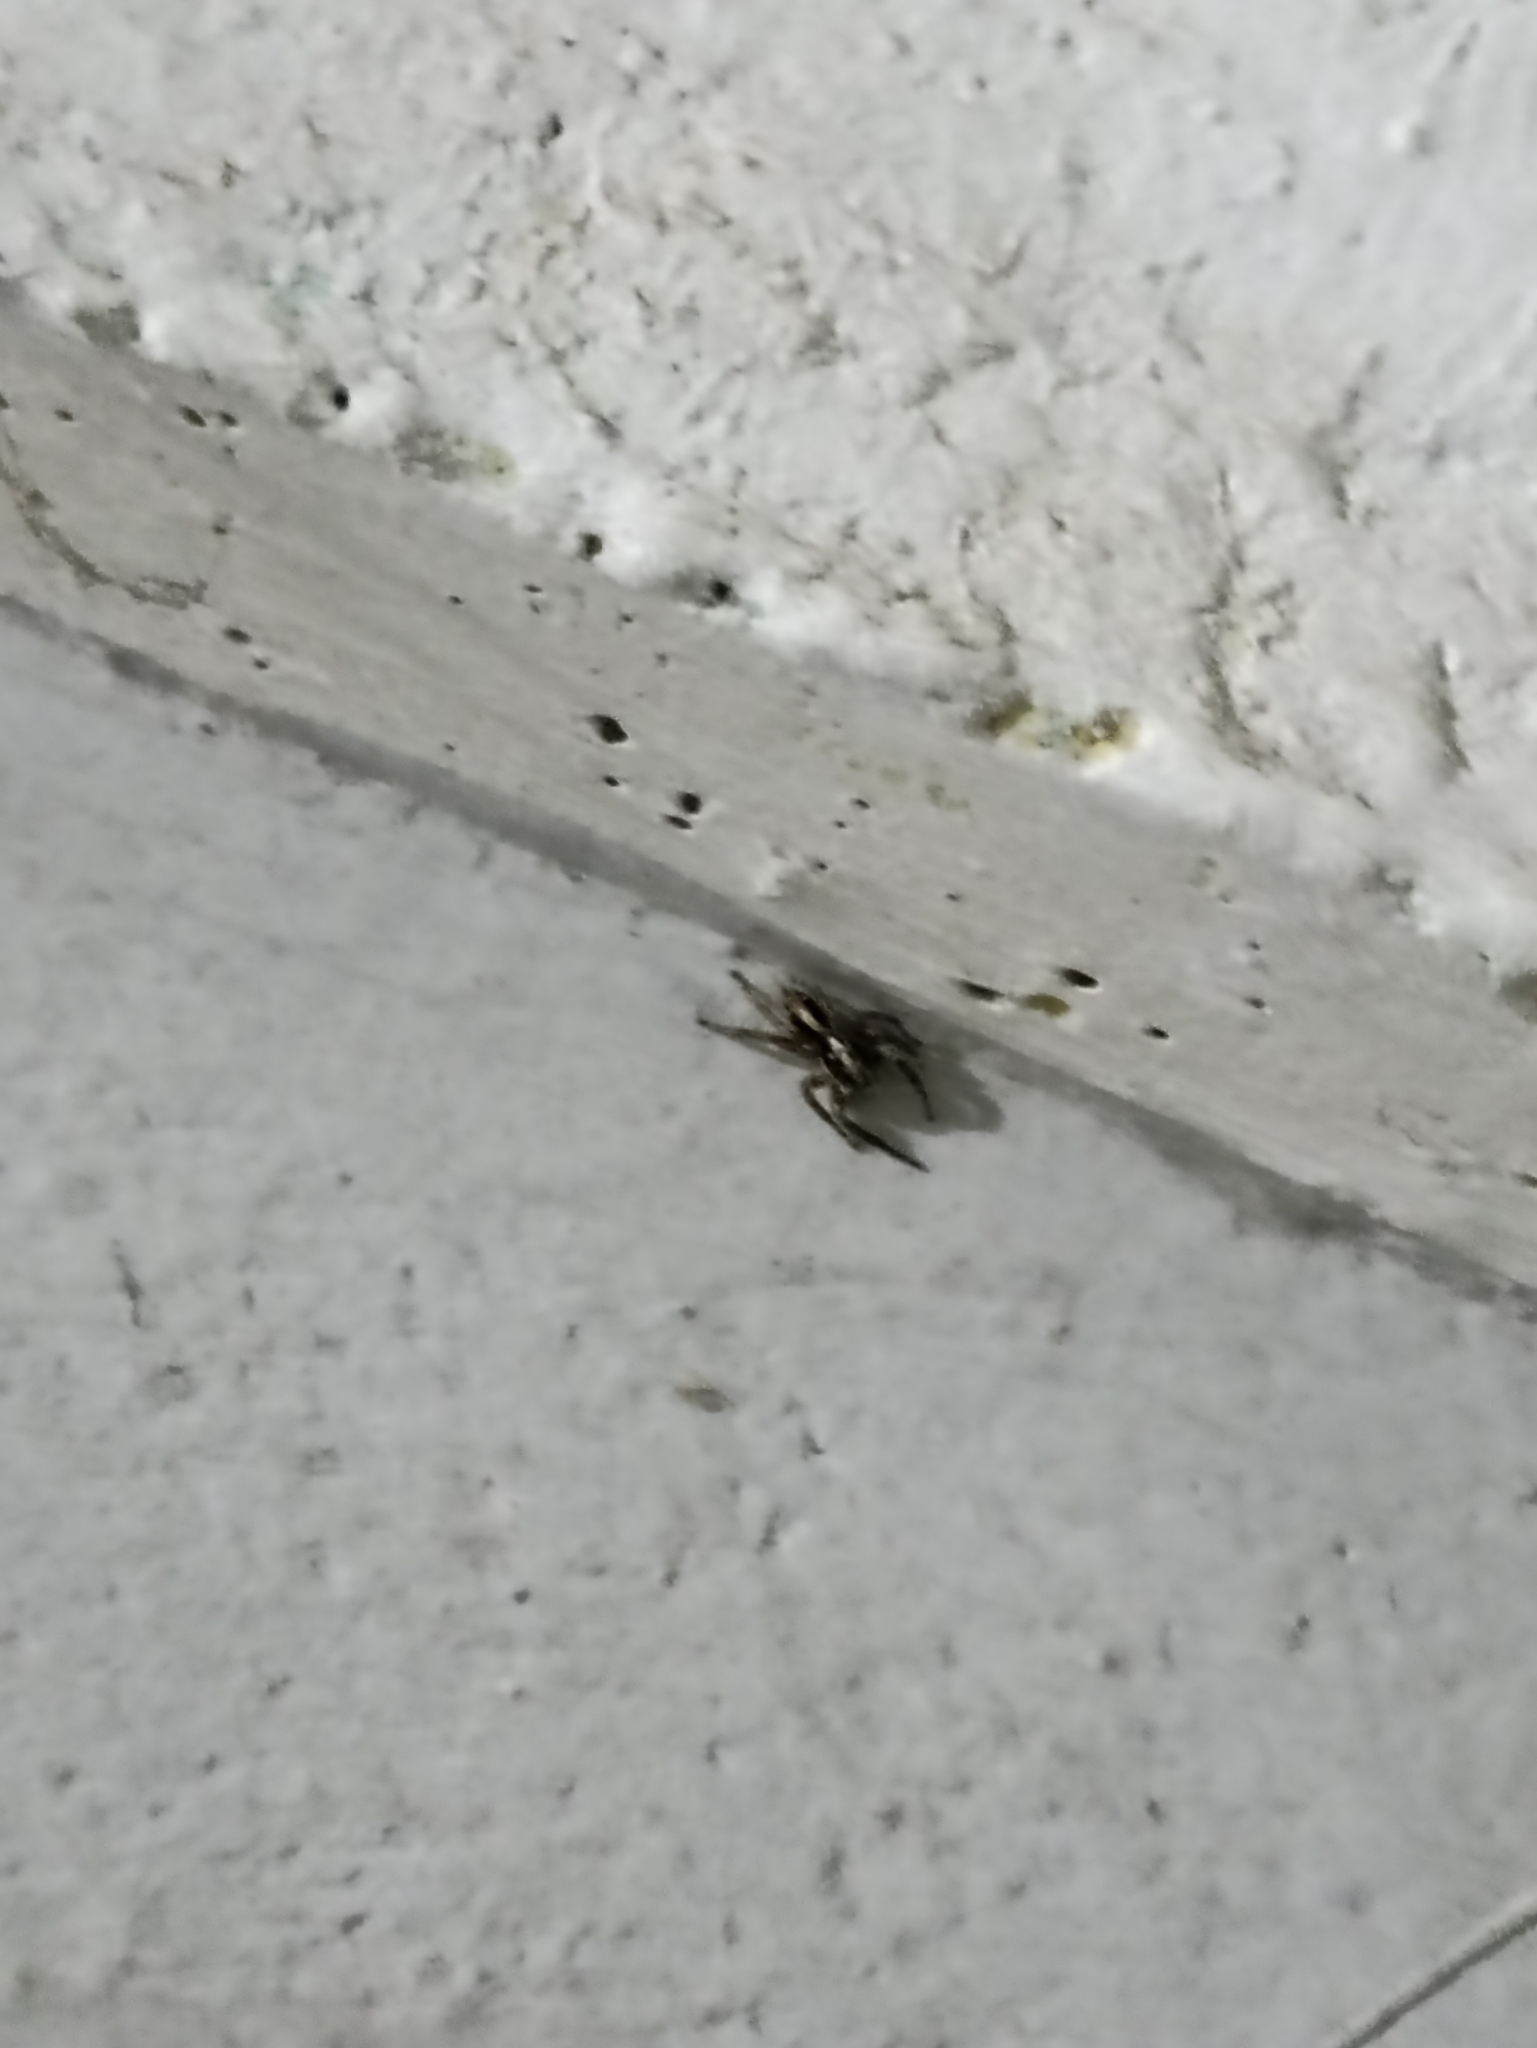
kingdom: Animalia
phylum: Arthropoda
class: Arachnida
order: Araneae
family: Salticidae
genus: Plexippus
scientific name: Plexippus paykulli
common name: Pantropical jumper
